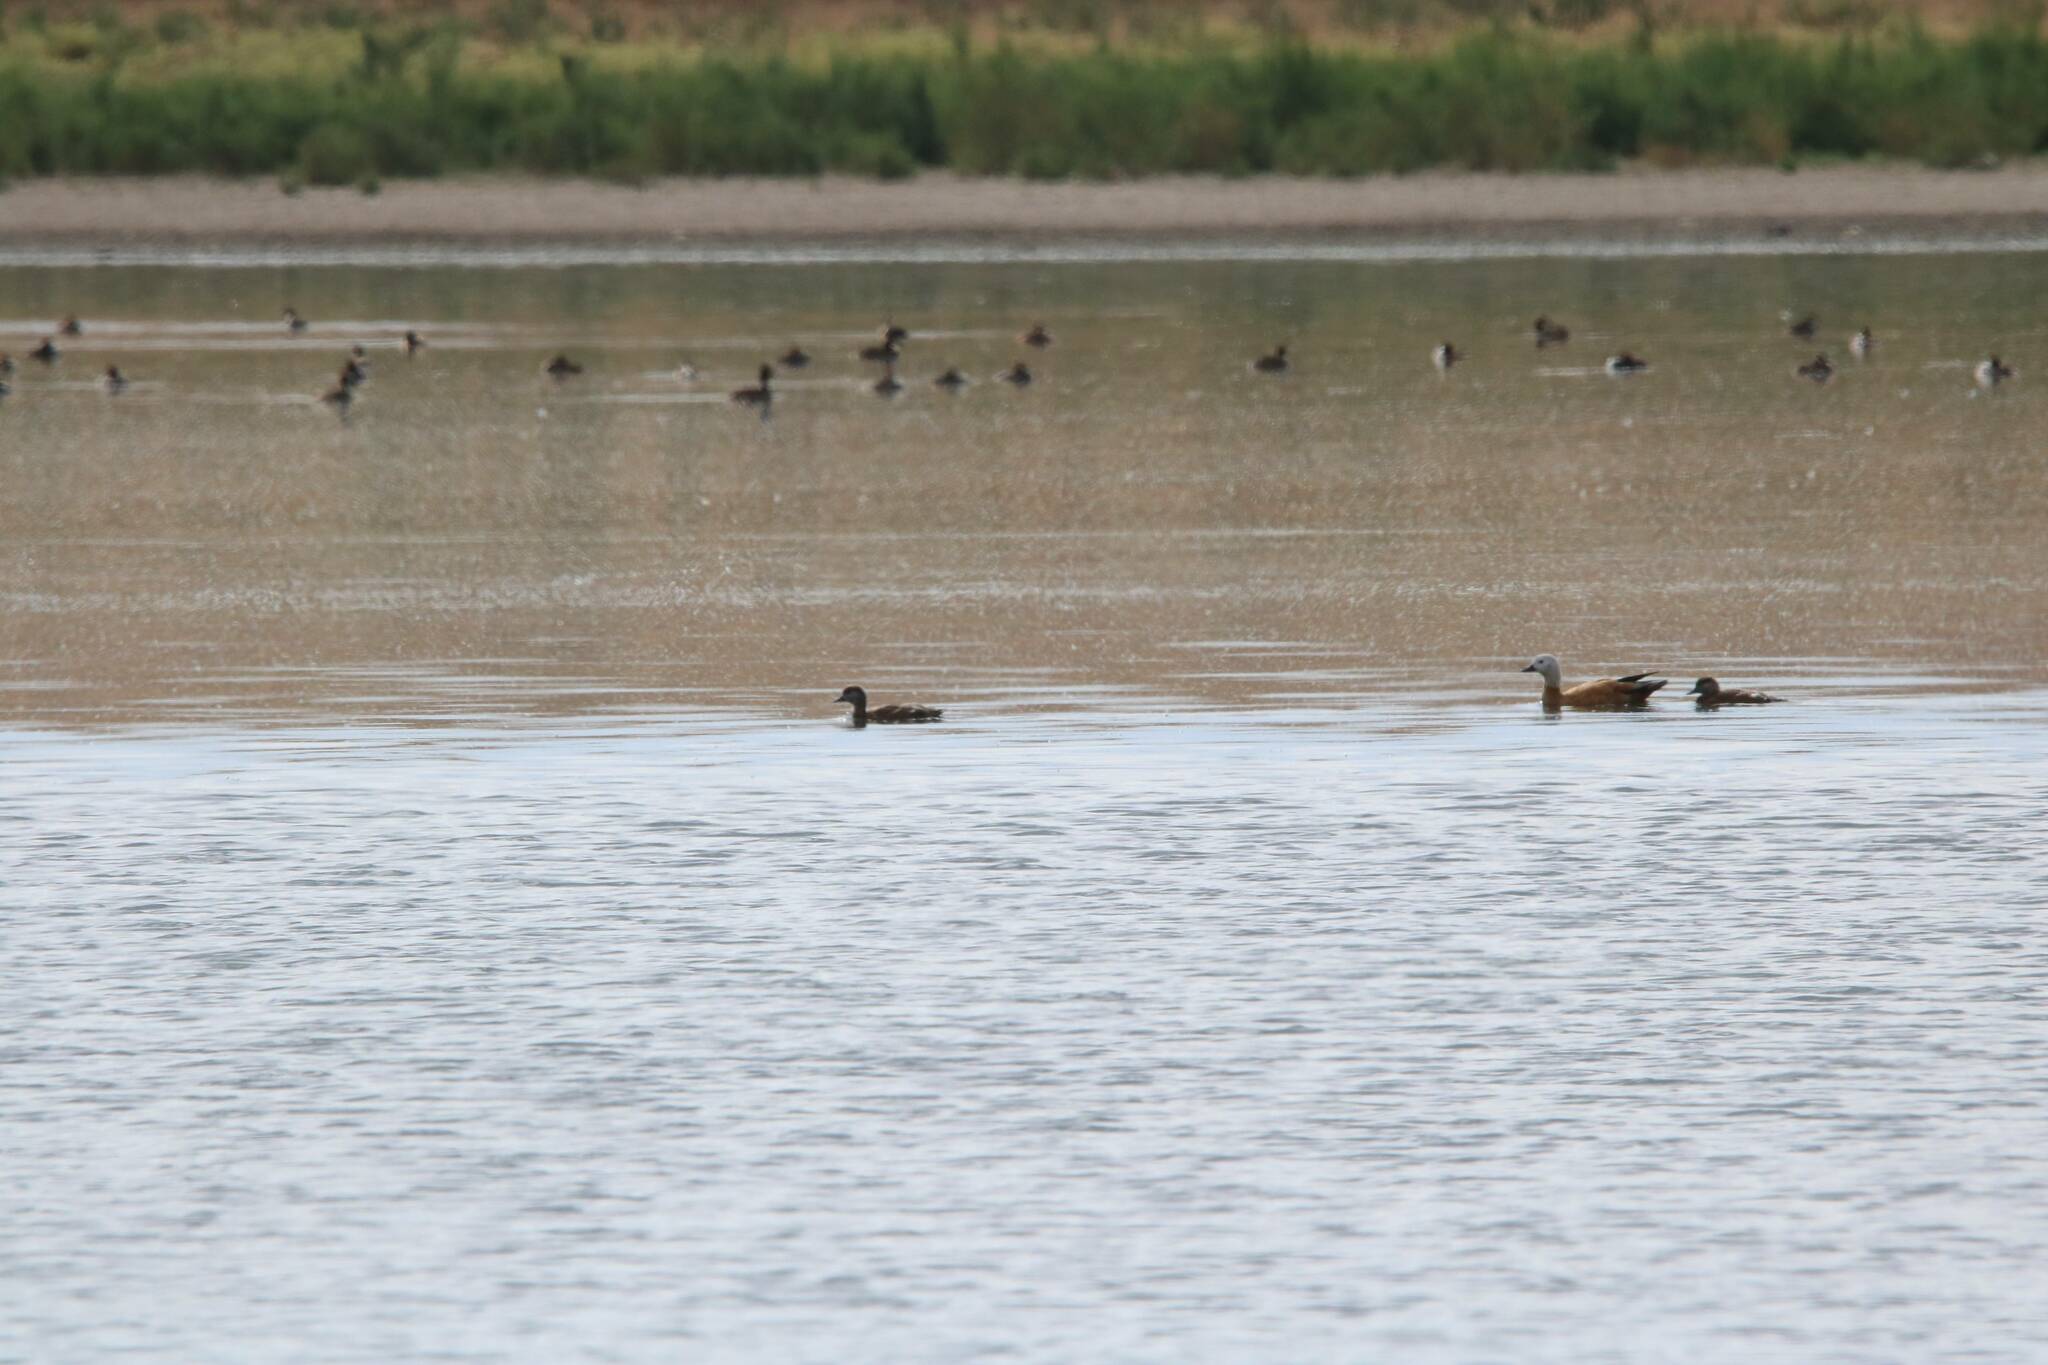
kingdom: Animalia
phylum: Chordata
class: Aves
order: Anseriformes
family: Anatidae
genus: Tadorna
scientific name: Tadorna ferruginea
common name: Ruddy shelduck
